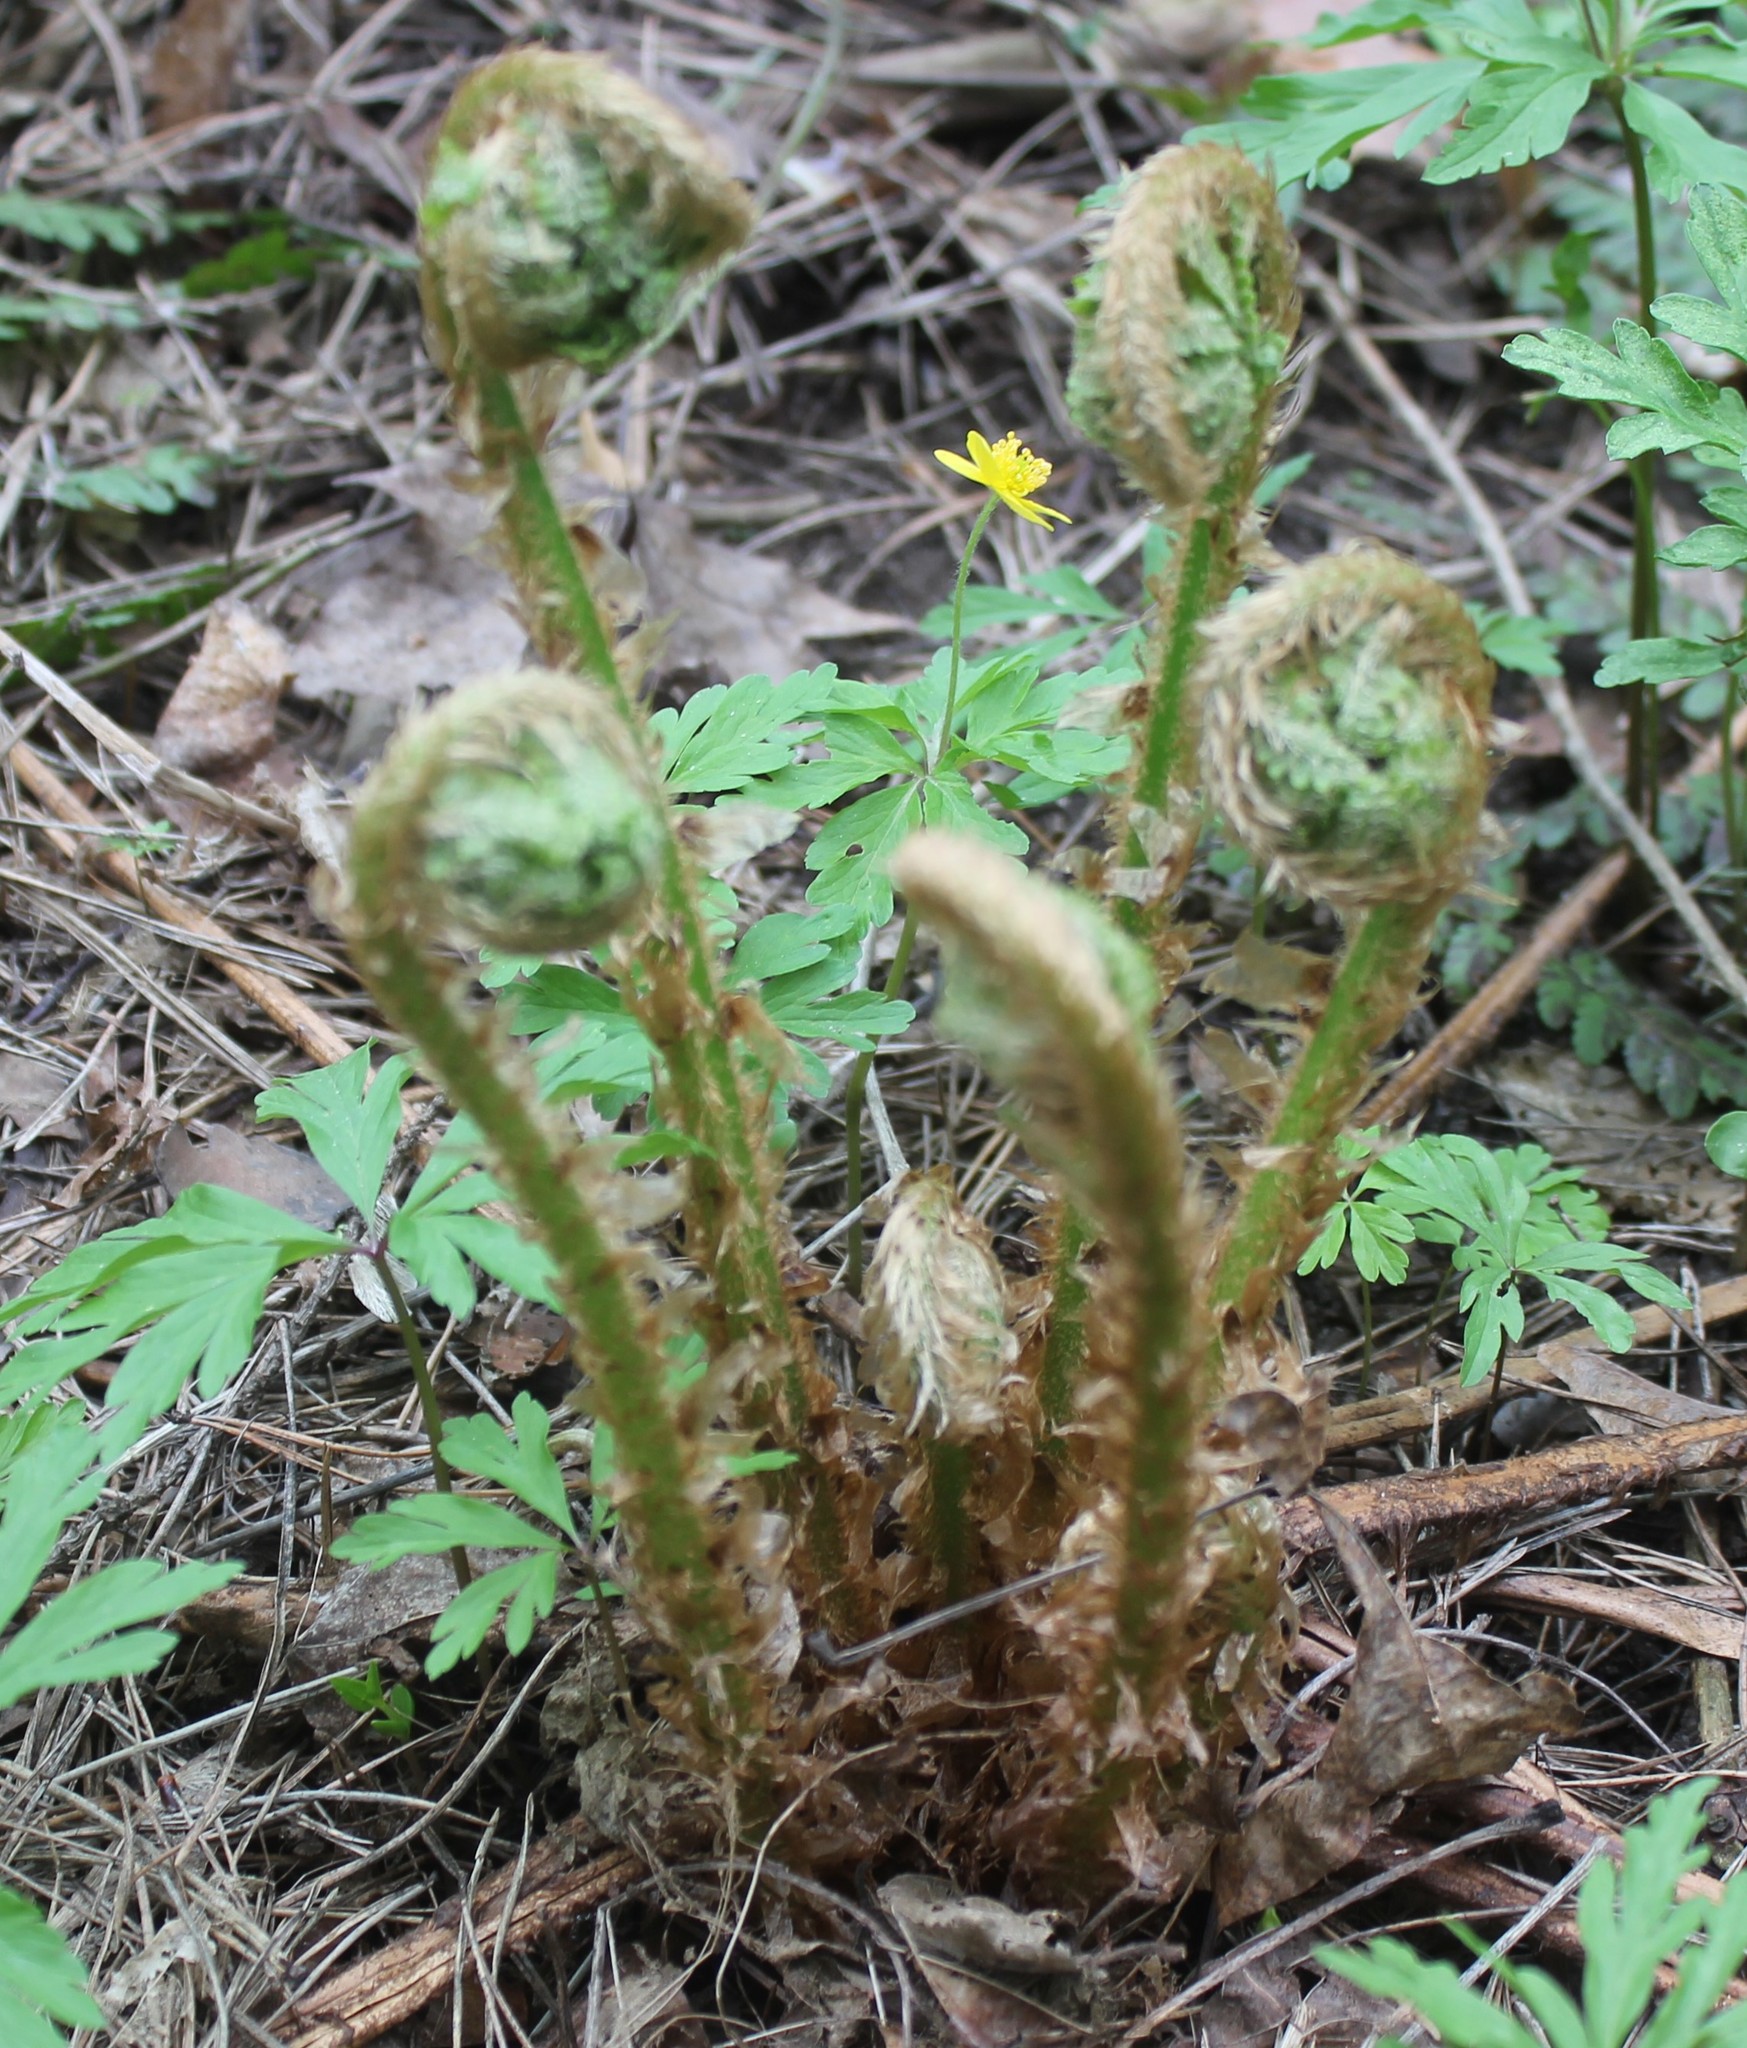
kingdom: Plantae
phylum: Tracheophyta
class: Polypodiopsida
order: Polypodiales
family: Dryopteridaceae
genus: Dryopteris
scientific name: Dryopteris filix-mas
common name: Male fern
